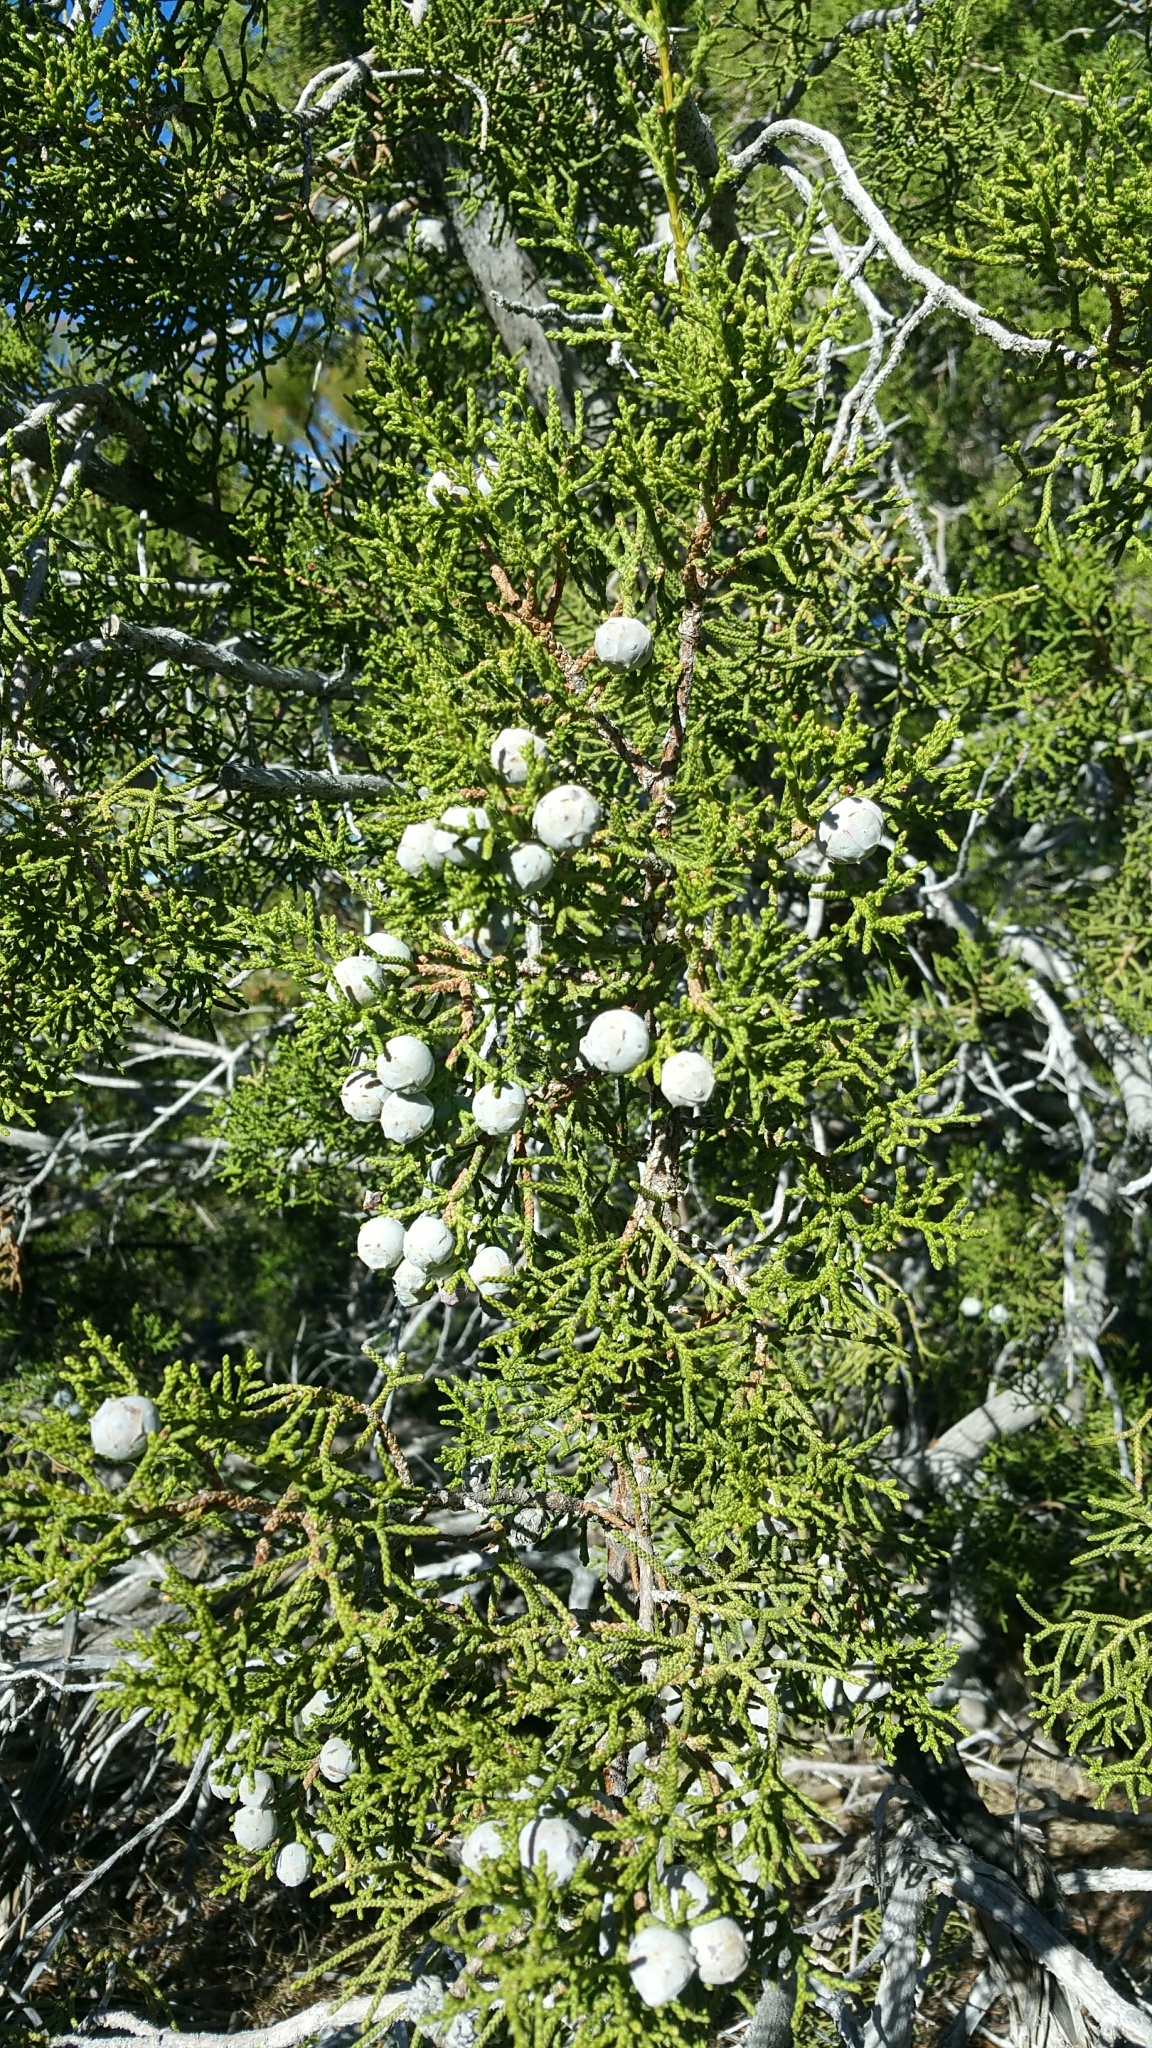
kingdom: Plantae
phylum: Tracheophyta
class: Pinopsida
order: Pinales
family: Cupressaceae
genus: Juniperus
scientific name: Juniperus californica
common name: California juniper
